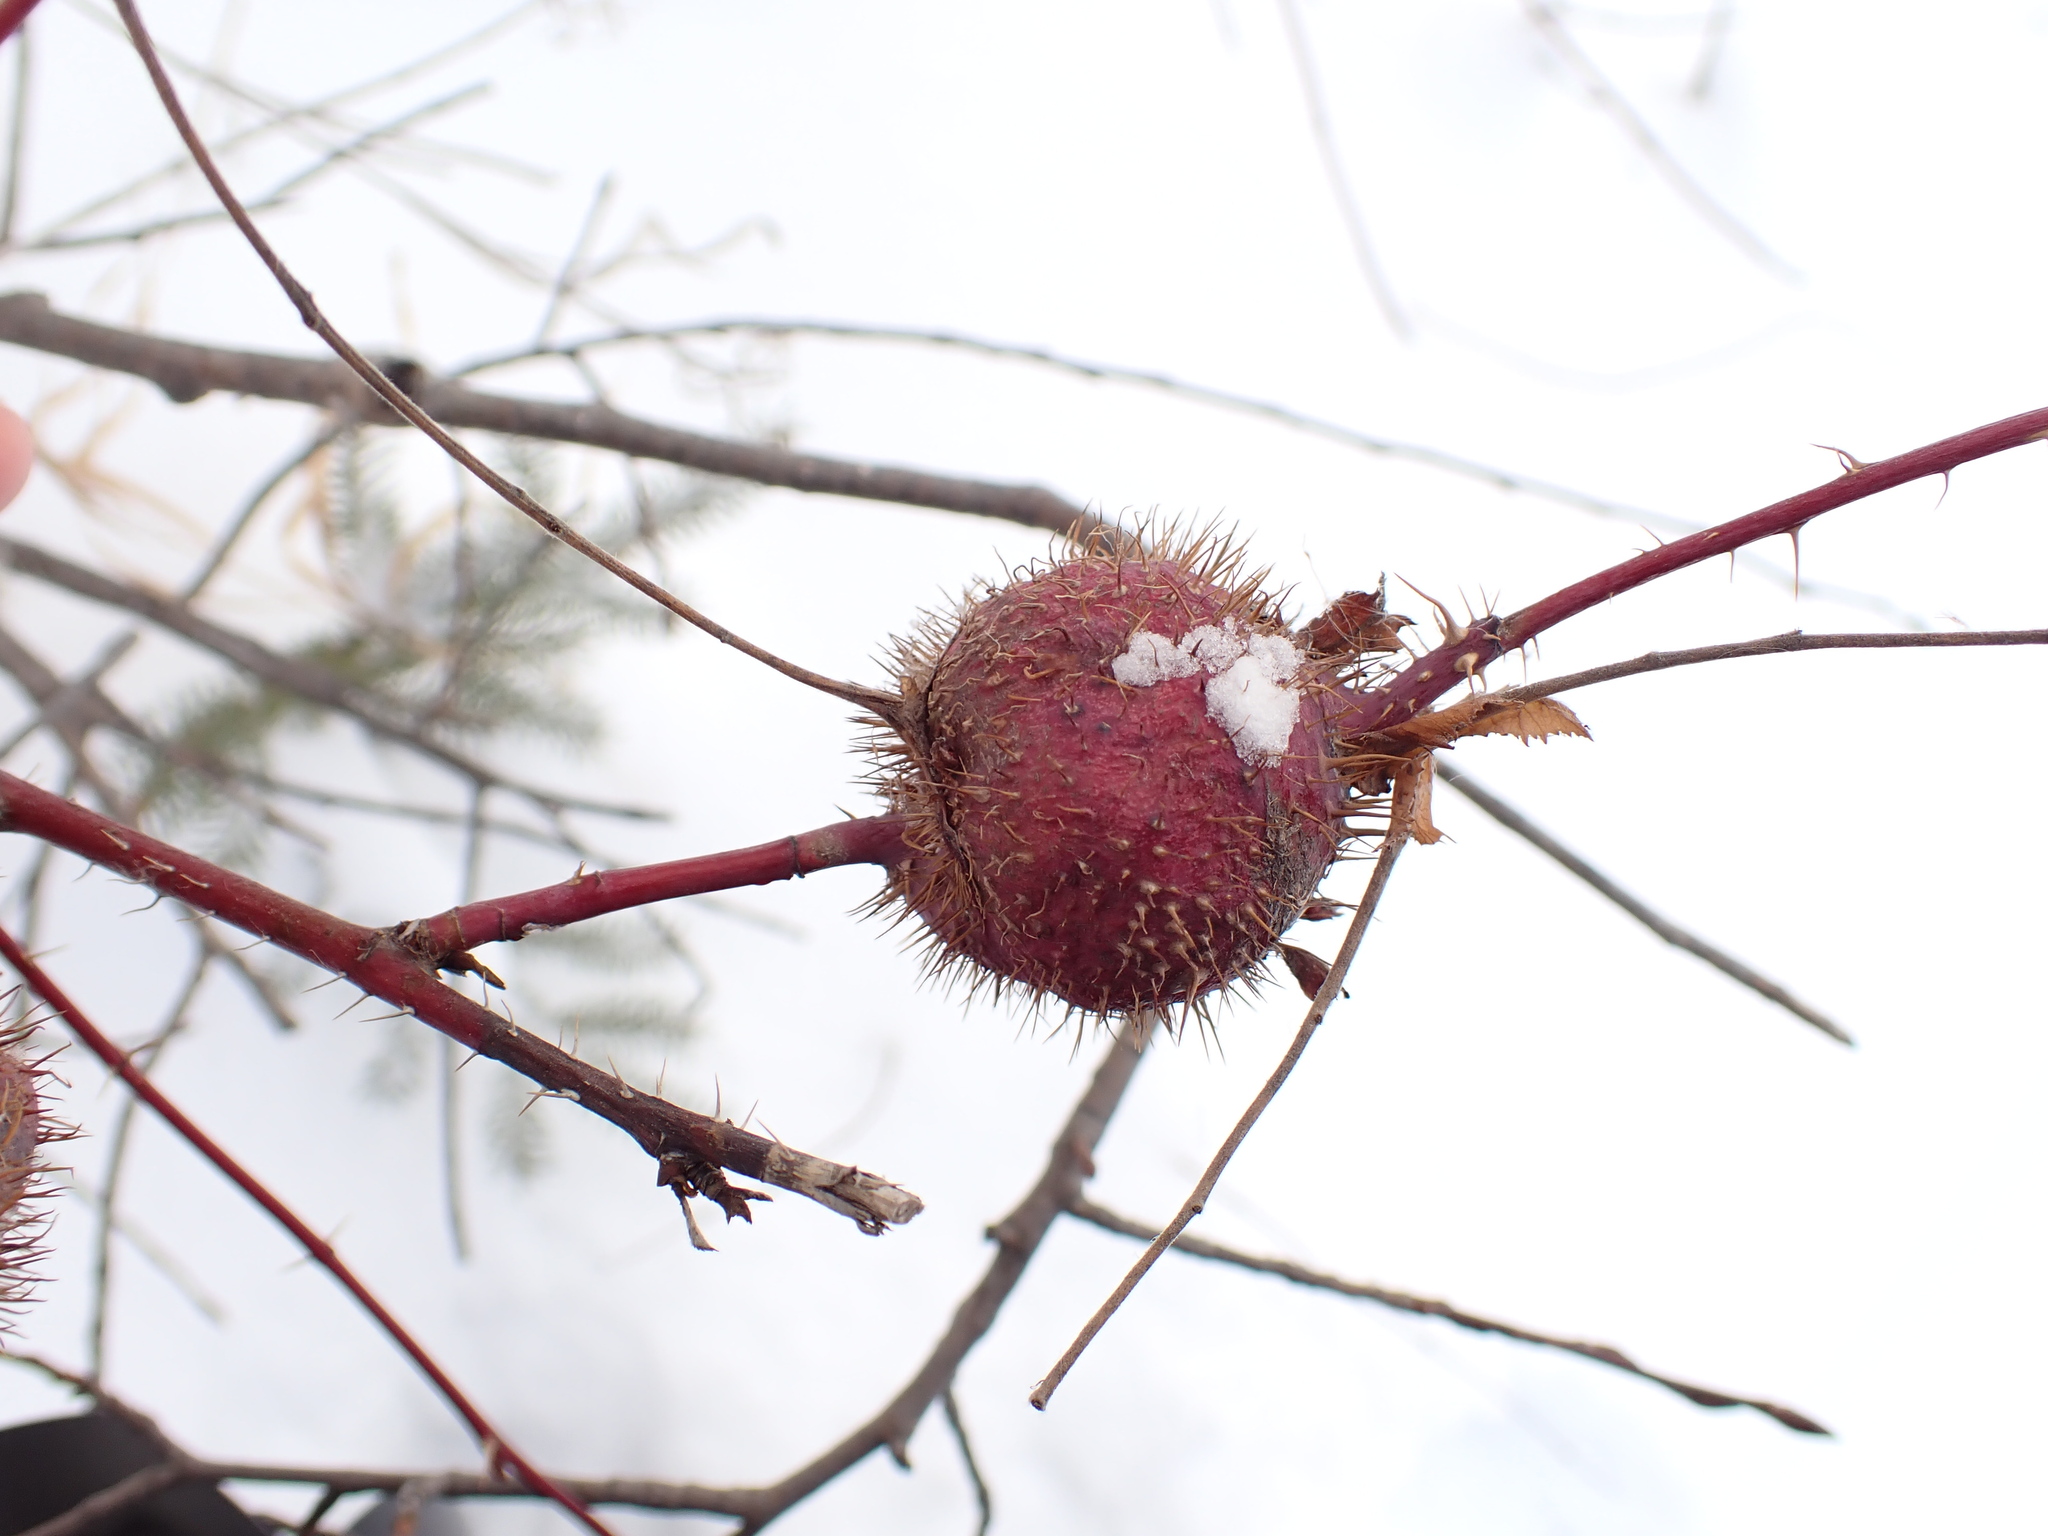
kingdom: Animalia
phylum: Arthropoda
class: Insecta
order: Hymenoptera
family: Cynipidae
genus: Diplolepis
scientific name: Diplolepis spinosa
